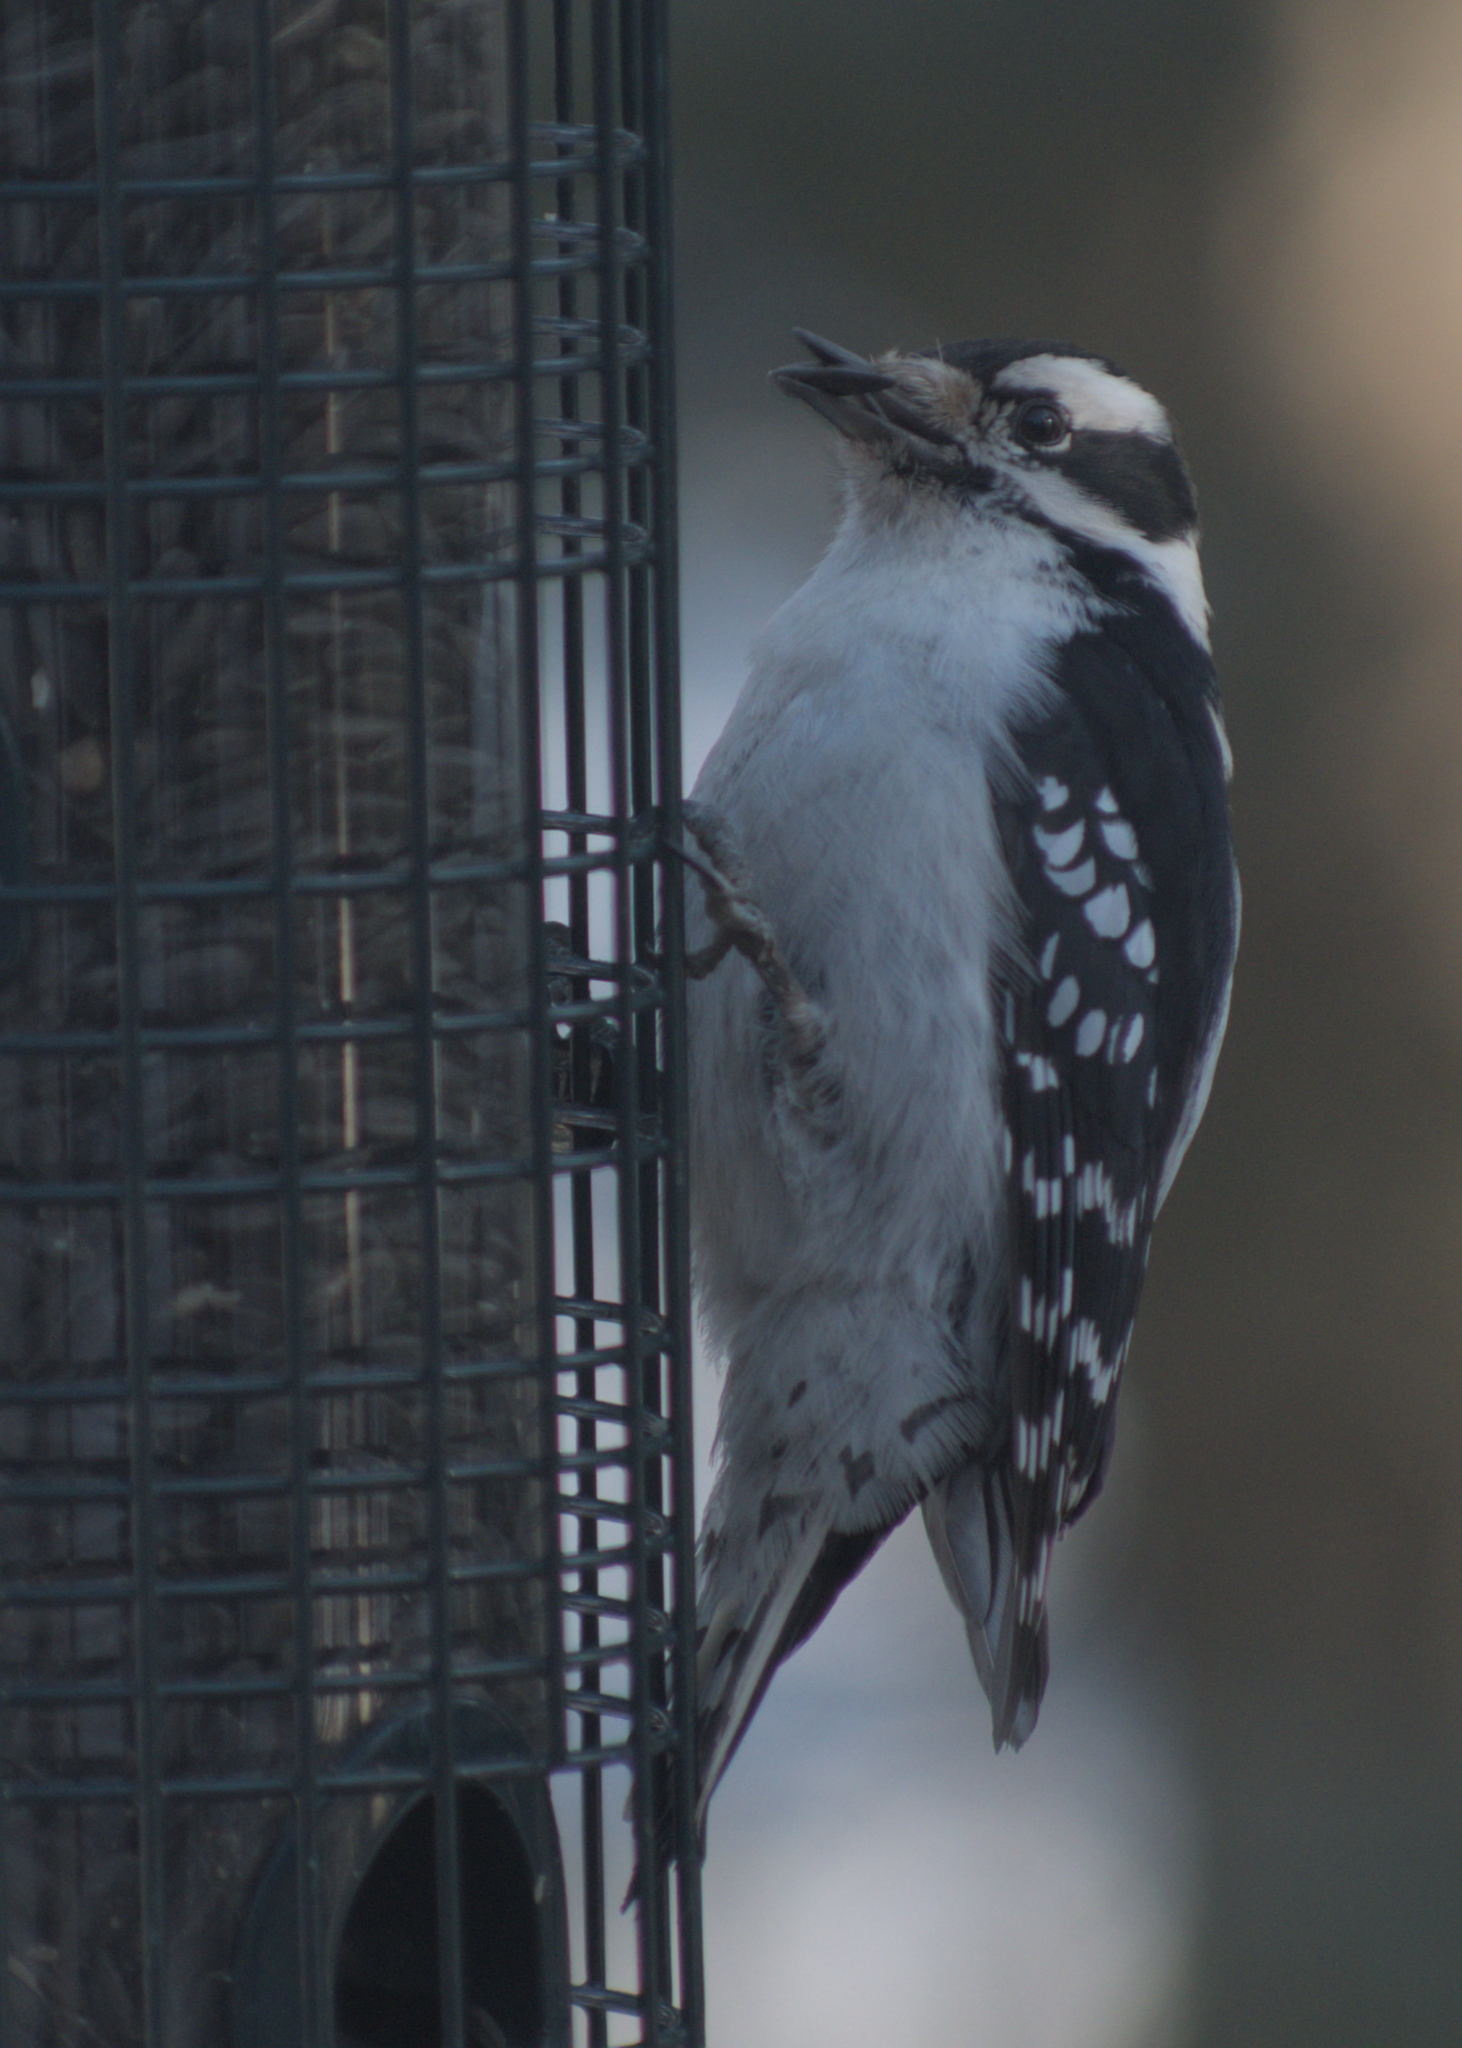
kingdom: Animalia
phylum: Chordata
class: Aves
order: Piciformes
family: Picidae
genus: Dryobates
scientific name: Dryobates pubescens
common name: Downy woodpecker
